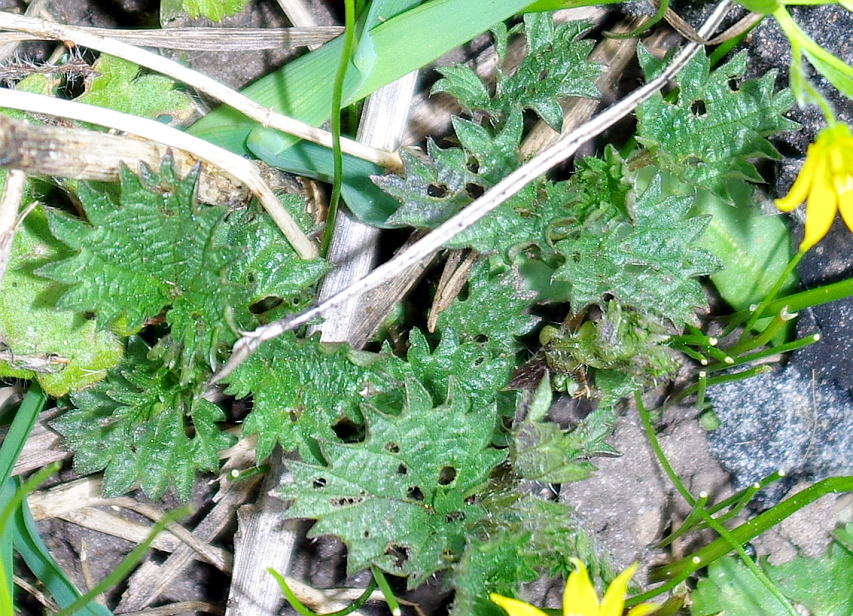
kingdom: Plantae
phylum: Tracheophyta
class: Magnoliopsida
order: Rosales
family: Urticaceae
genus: Urtica
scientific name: Urtica dioica
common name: Common nettle
